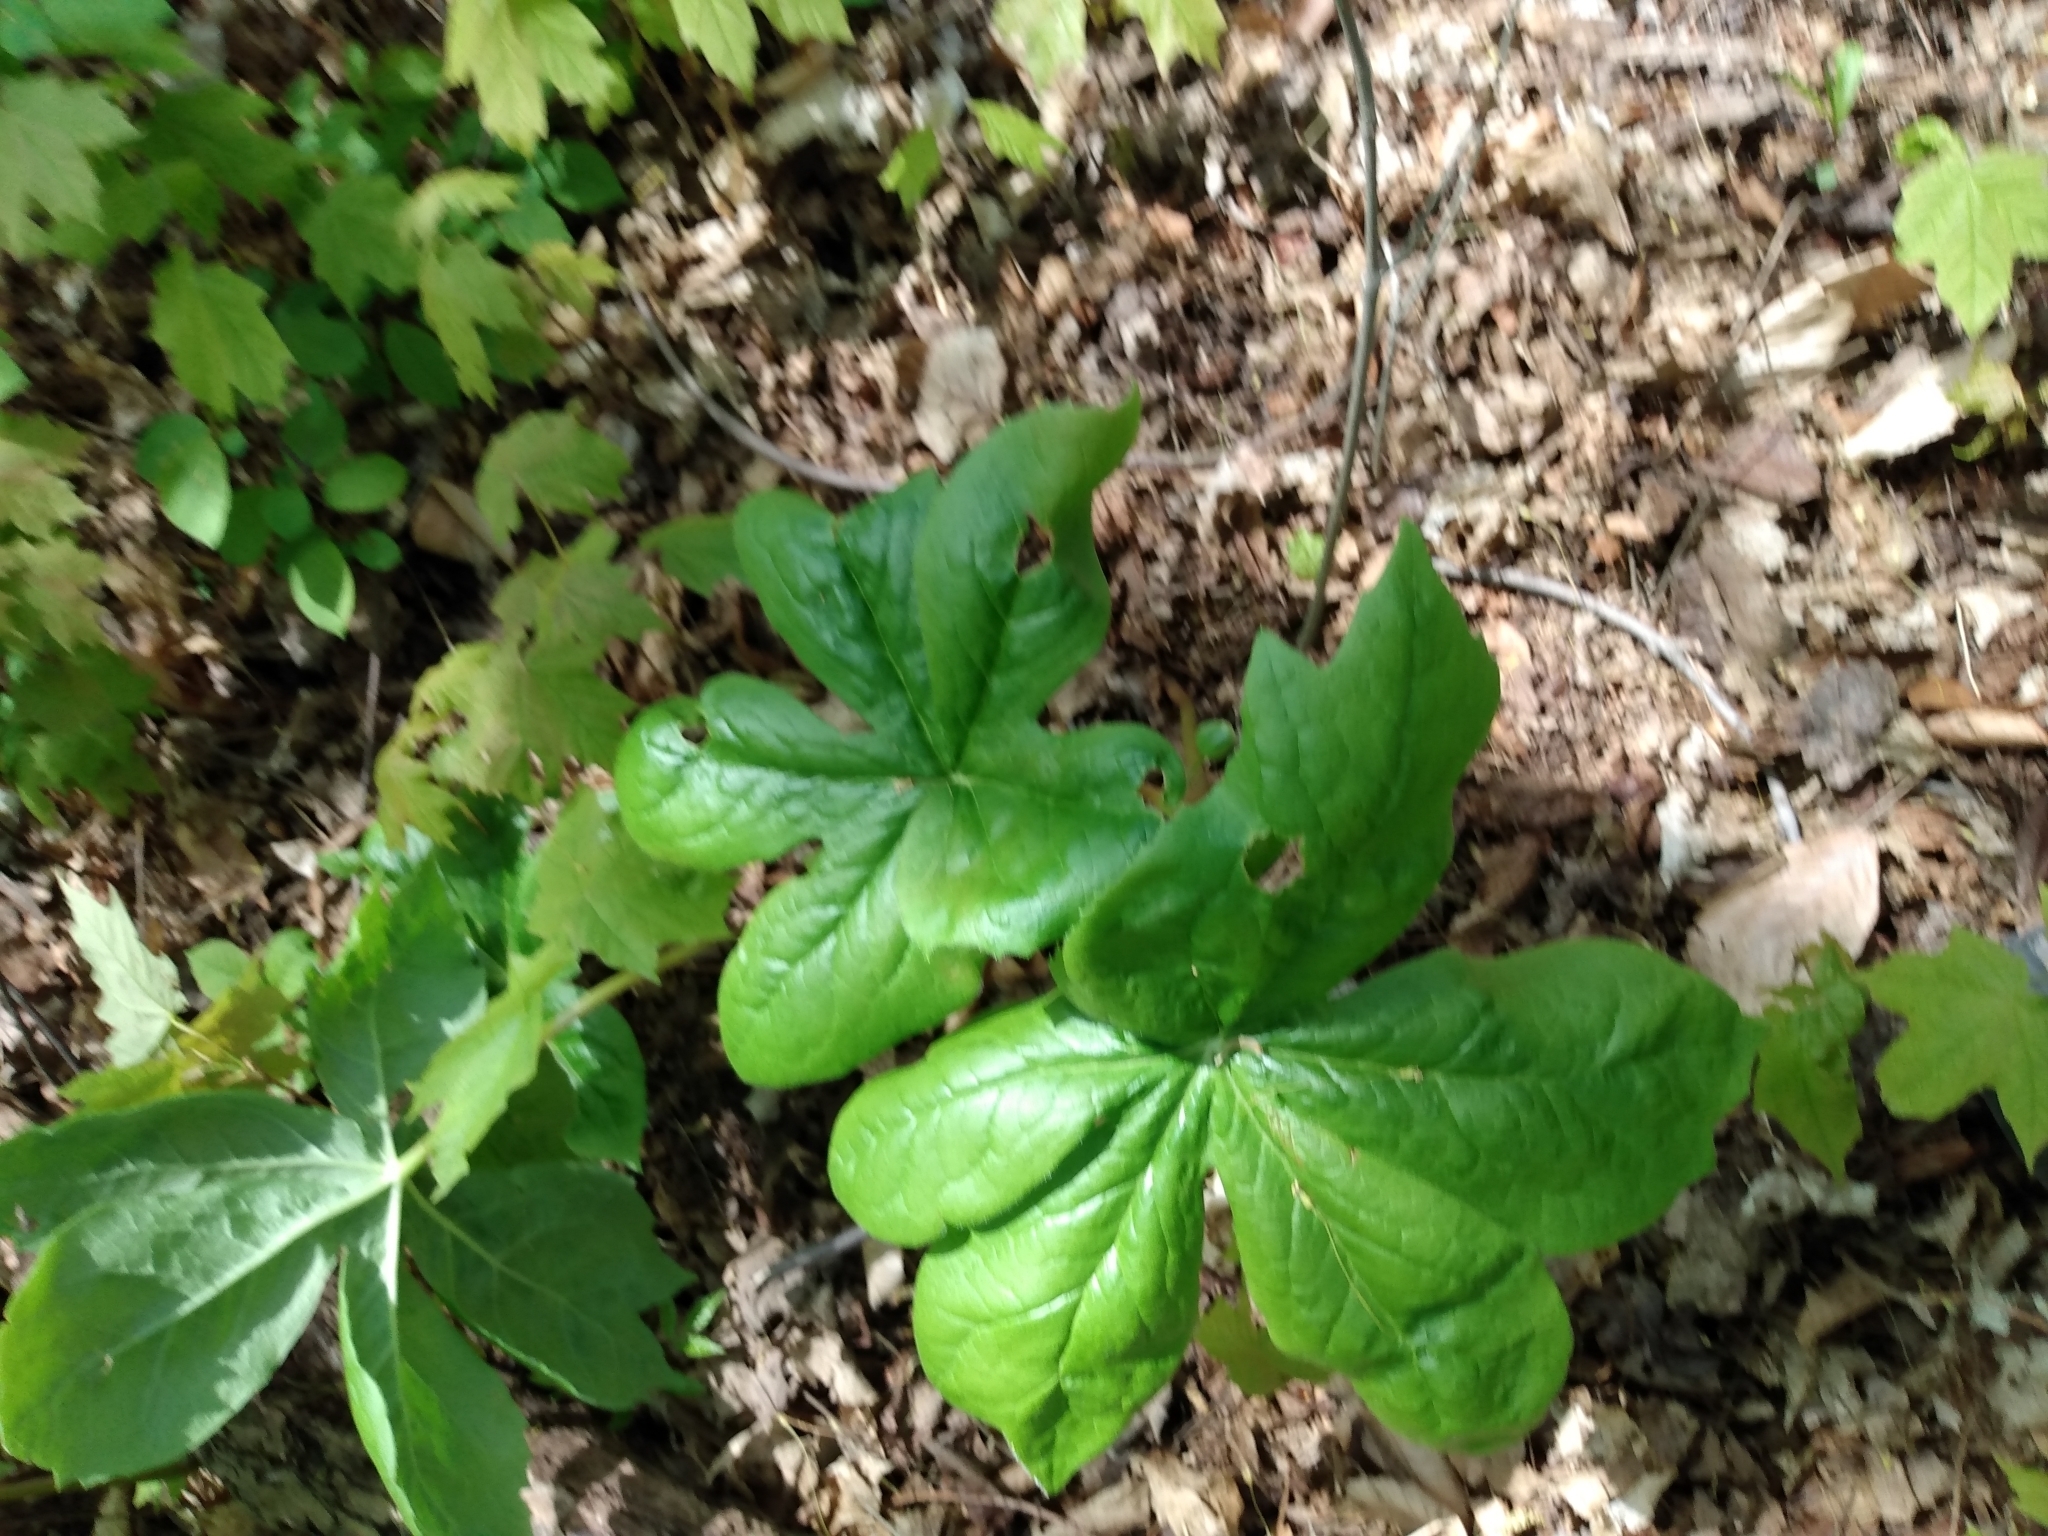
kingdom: Plantae
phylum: Tracheophyta
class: Magnoliopsida
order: Ranunculales
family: Berberidaceae
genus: Podophyllum
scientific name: Podophyllum peltatum
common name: Wild mandrake
